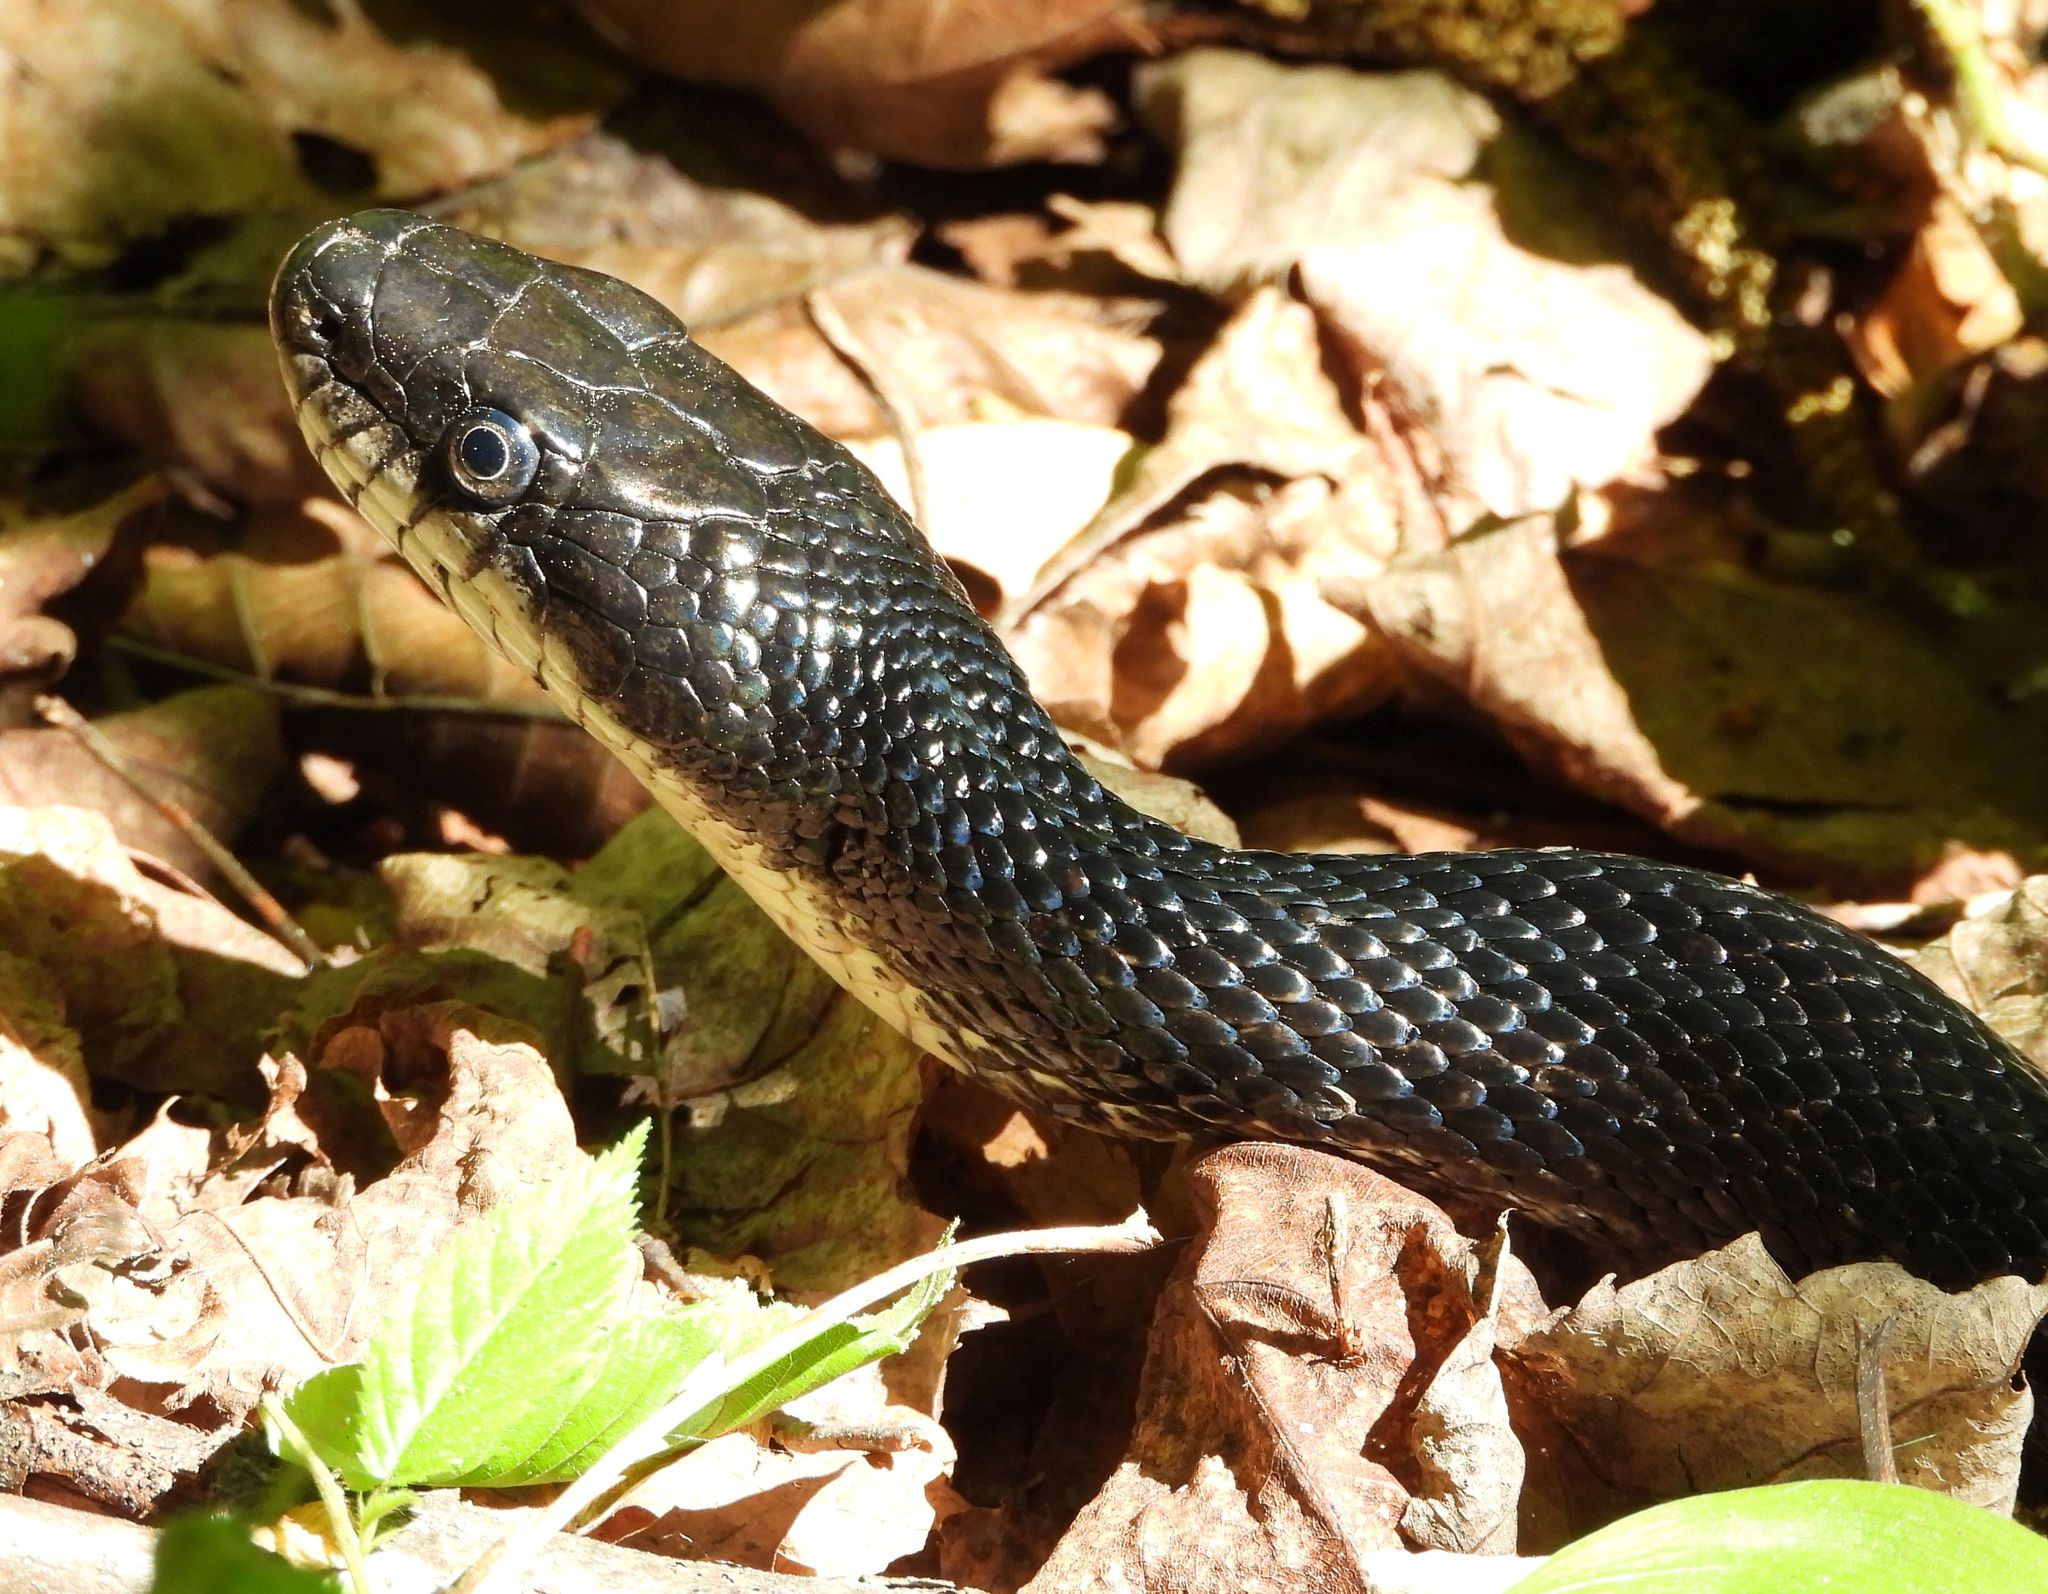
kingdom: Animalia
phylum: Chordata
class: Squamata
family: Colubridae
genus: Pantherophis
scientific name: Pantherophis spiloides
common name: Gray rat snake
